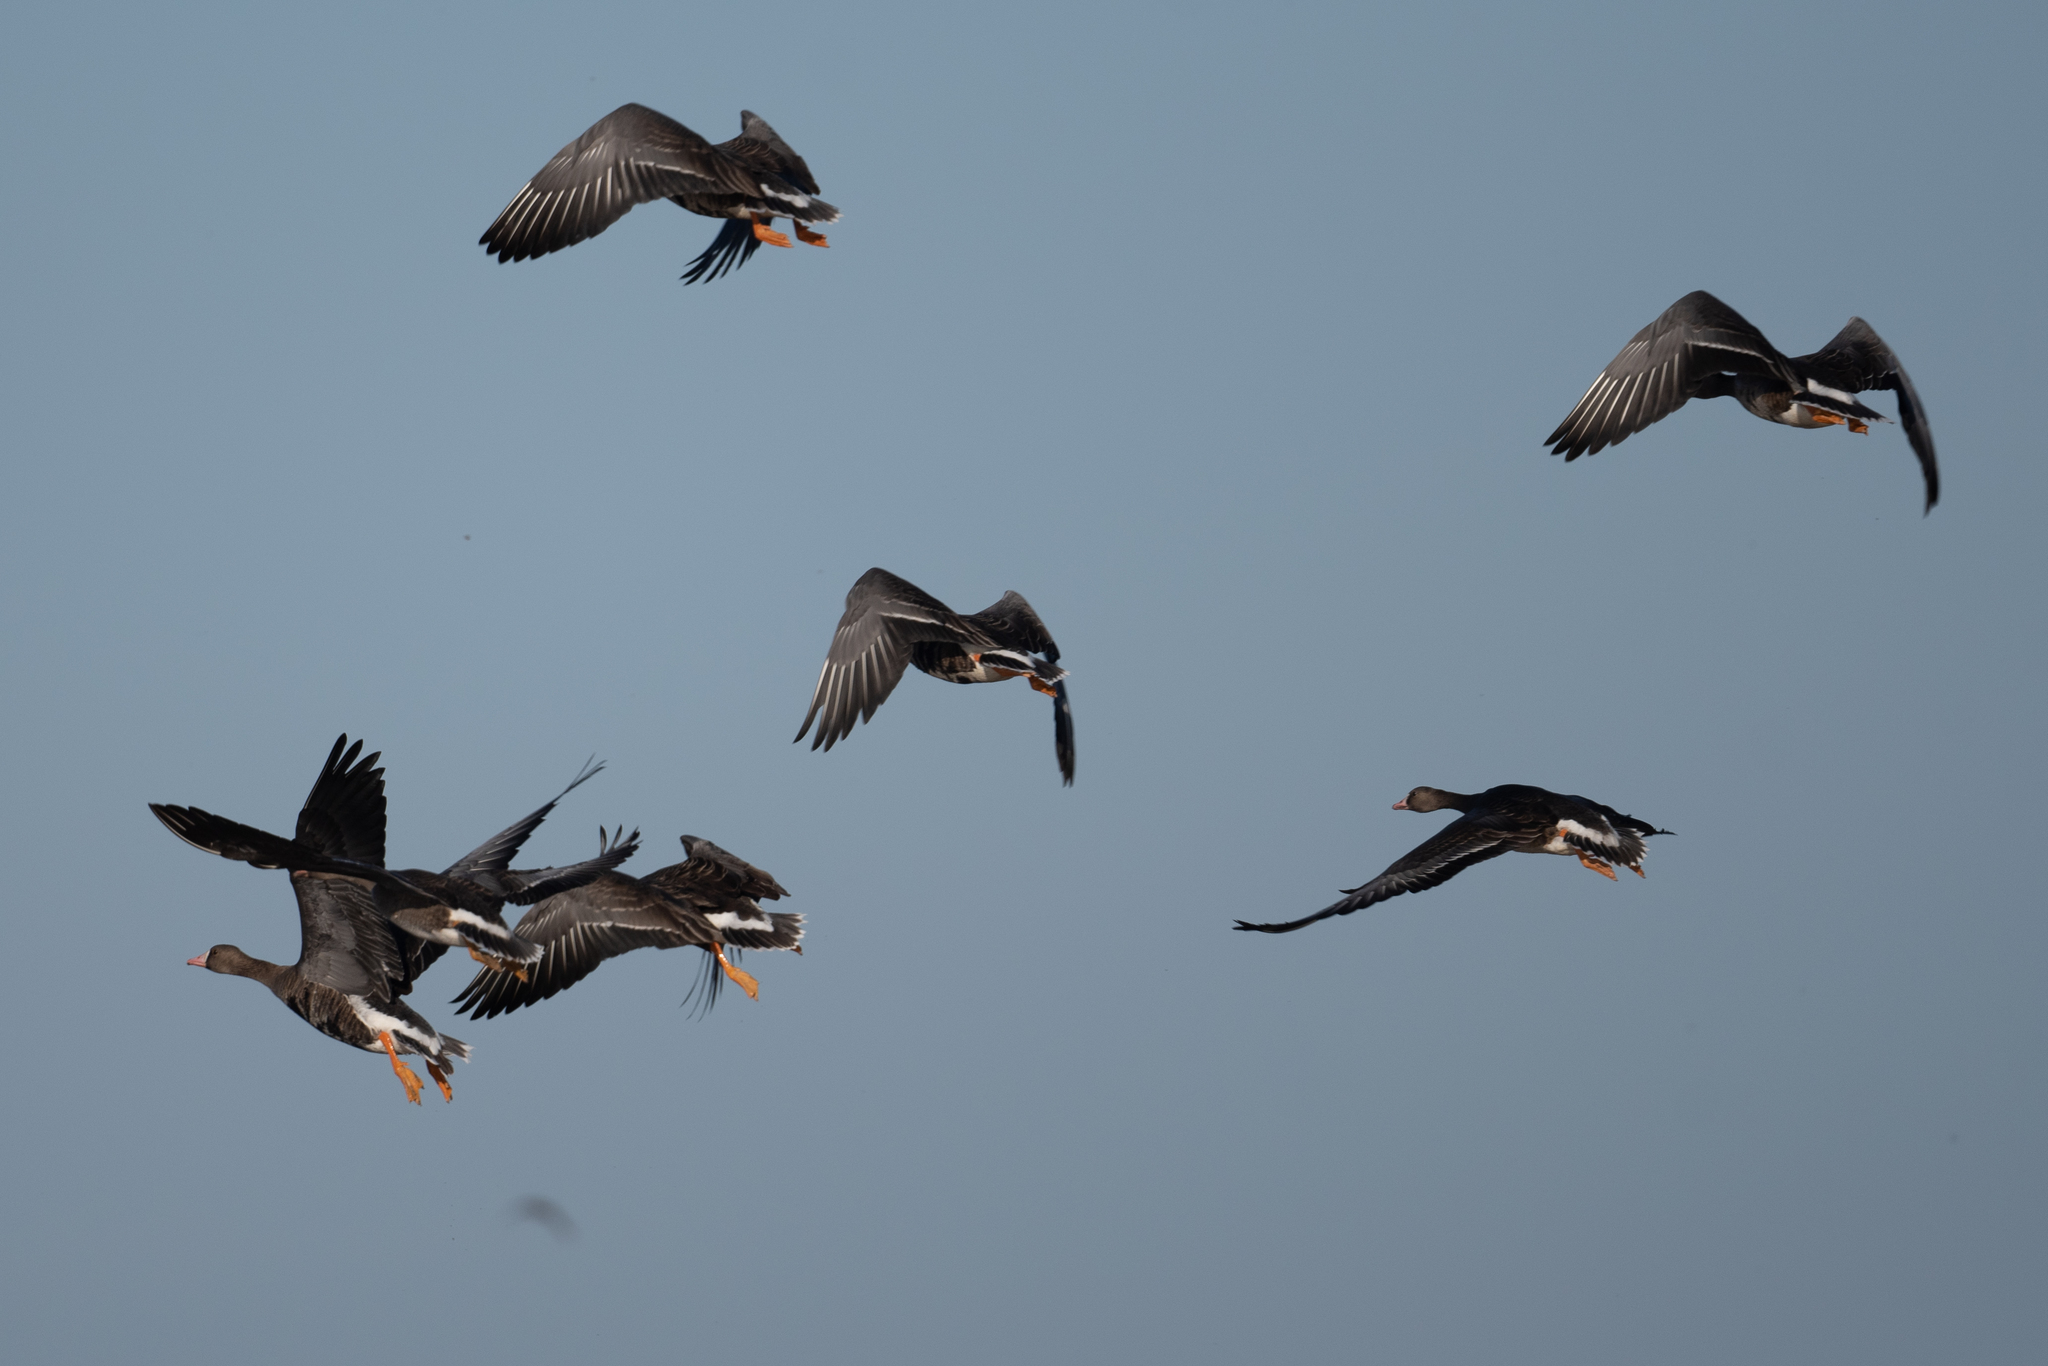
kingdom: Animalia
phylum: Chordata
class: Aves
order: Anseriformes
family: Anatidae
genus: Anser
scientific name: Anser albifrons
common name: Greater white-fronted goose
